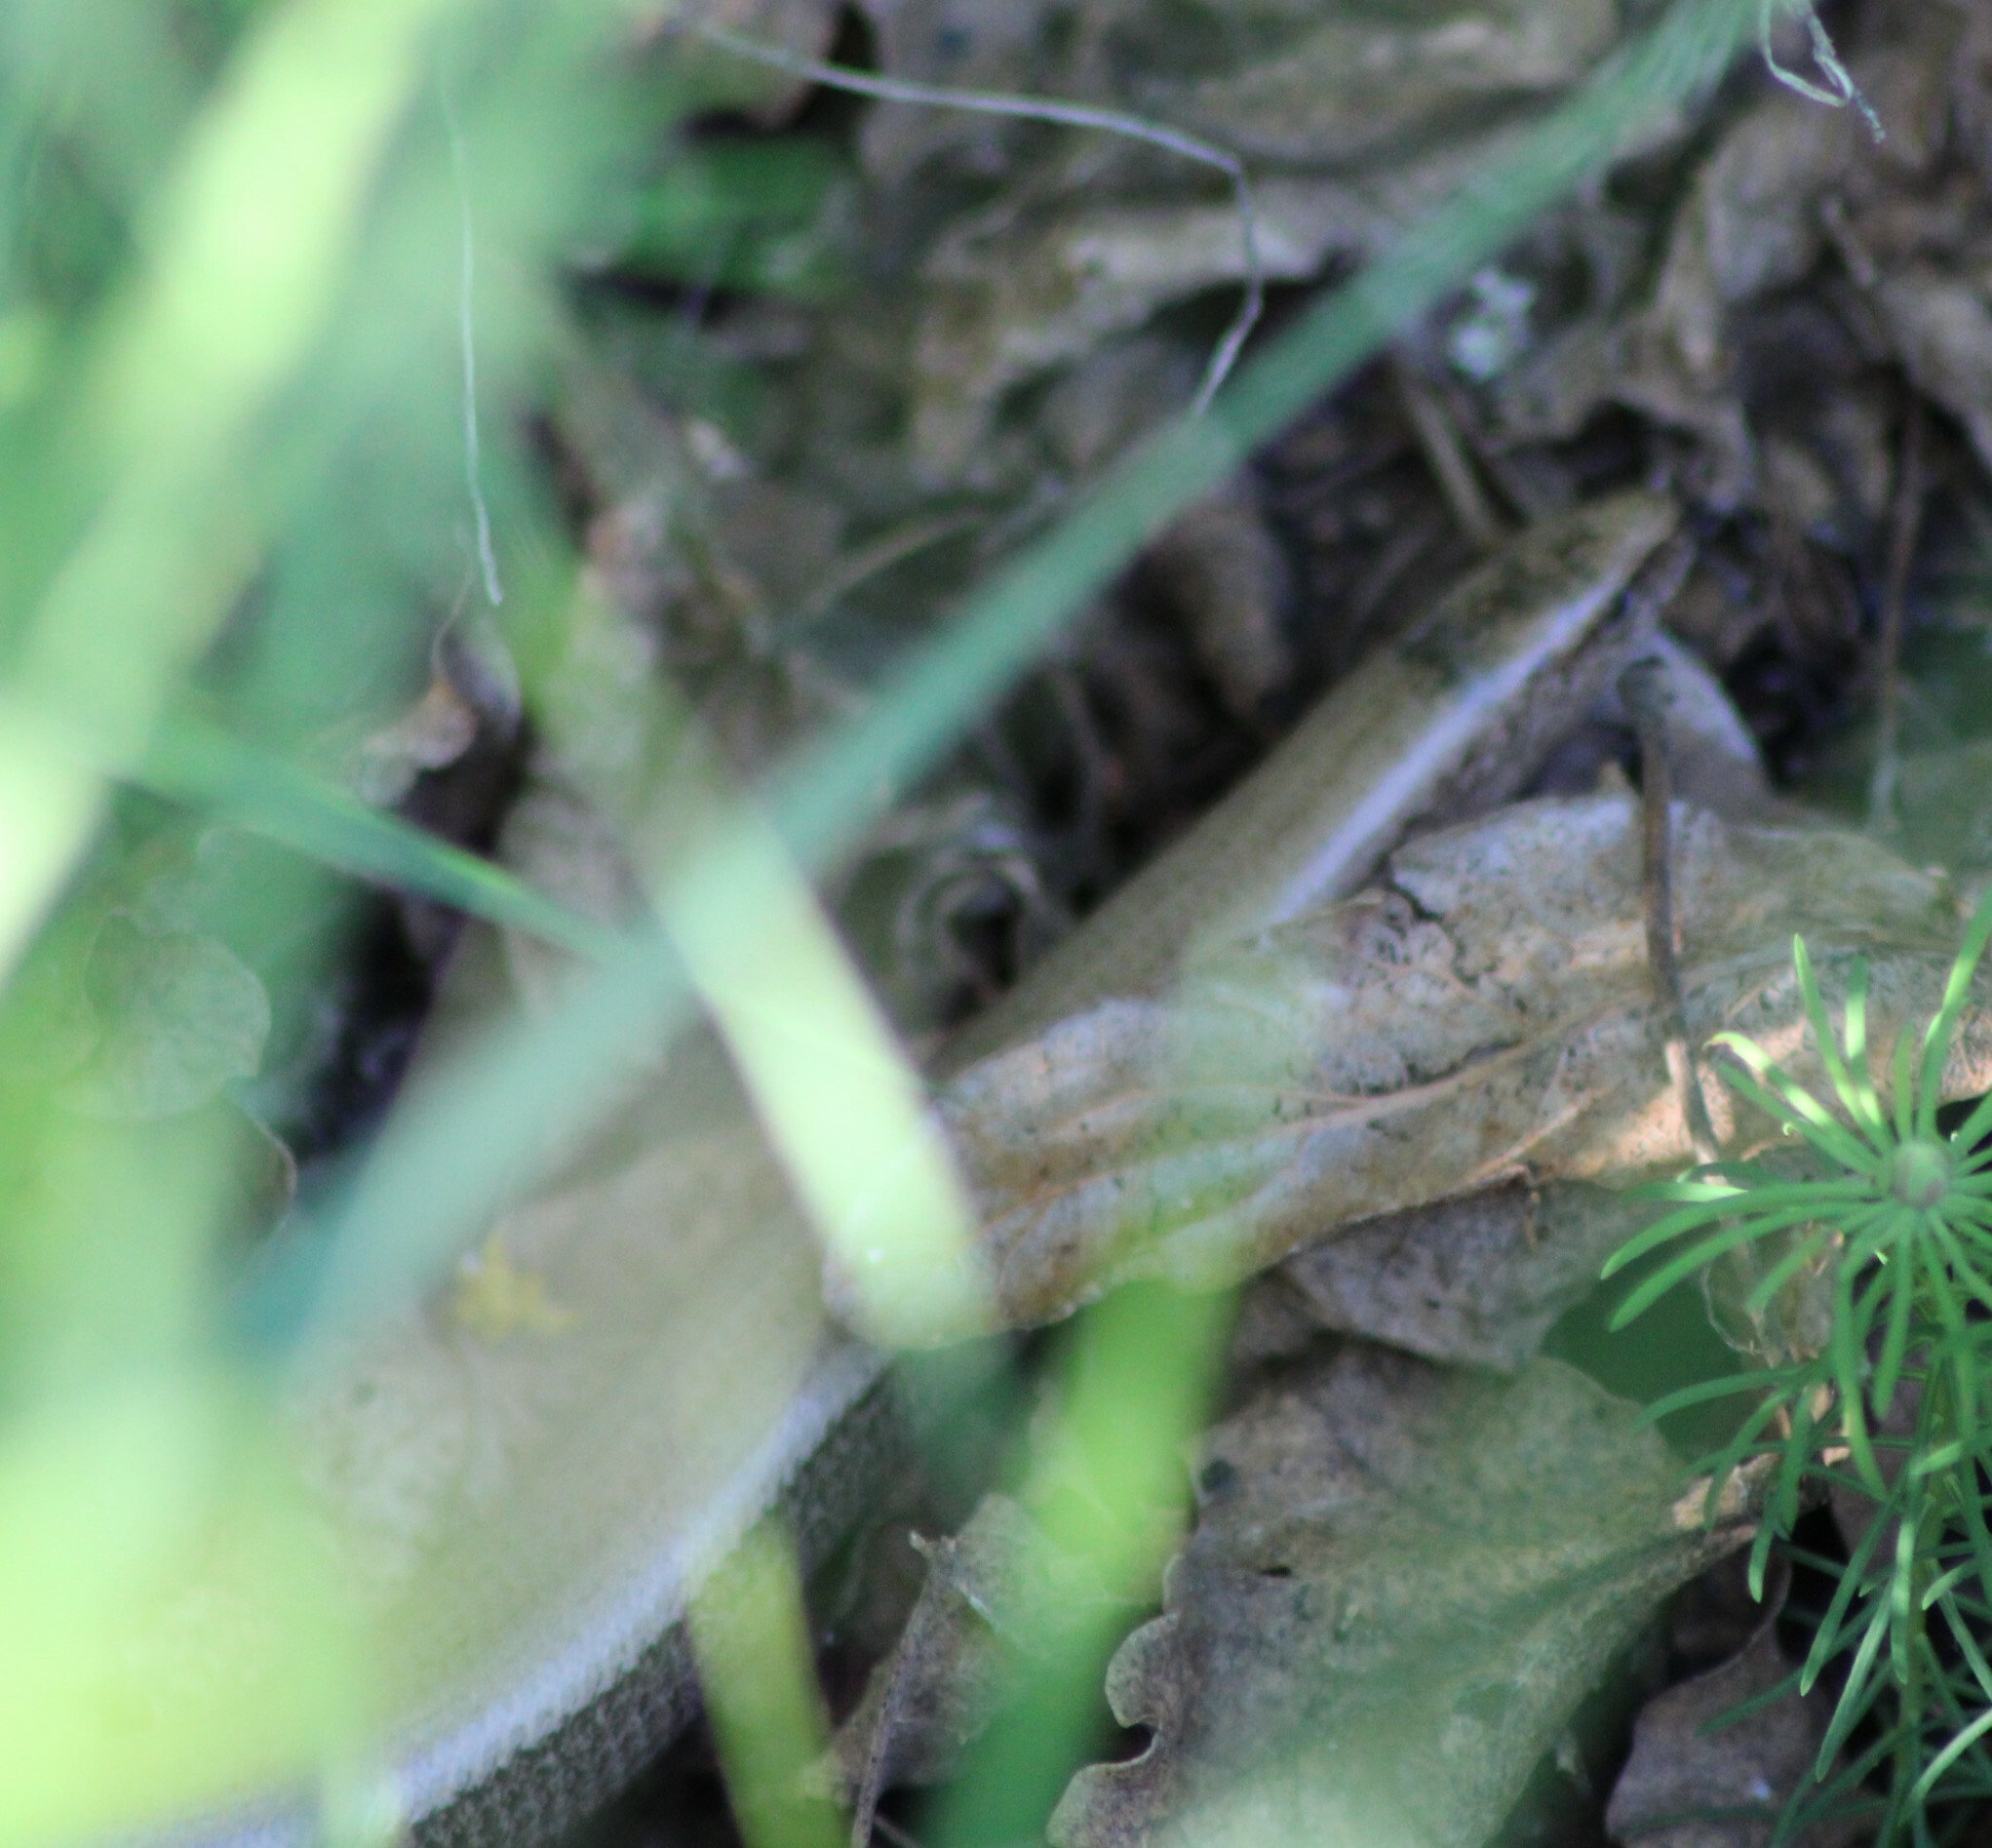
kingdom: Animalia
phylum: Chordata
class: Squamata
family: Anguidae
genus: Anguis
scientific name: Anguis fragilis
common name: Slow worm
